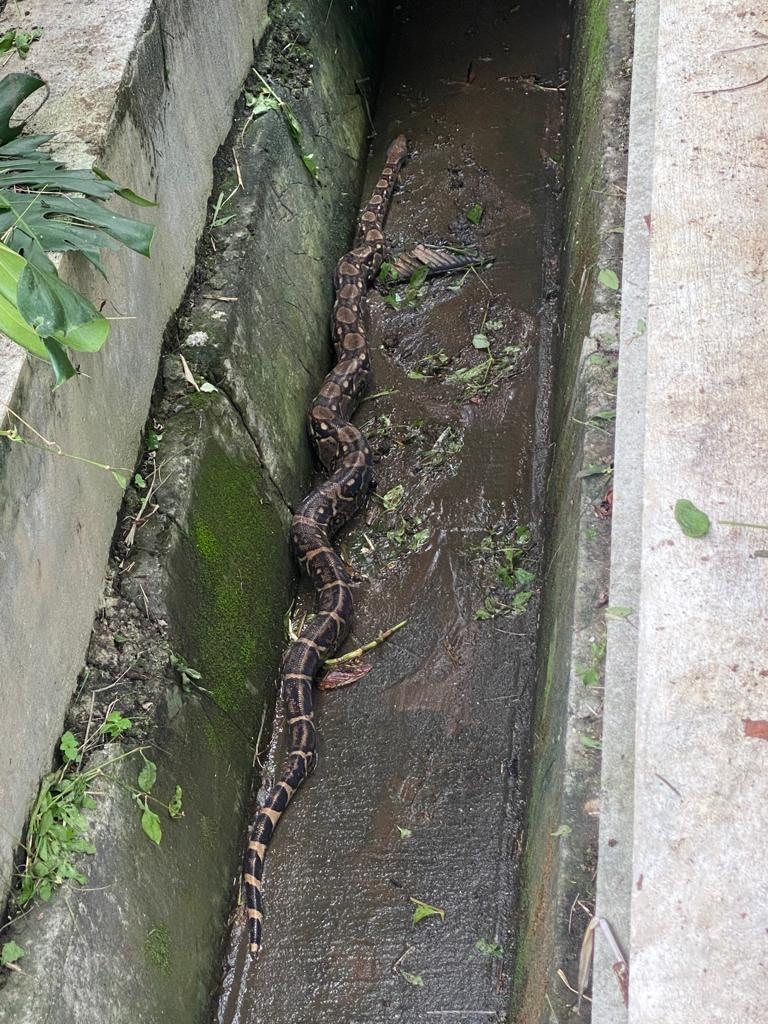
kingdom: Animalia
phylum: Chordata
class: Squamata
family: Boidae
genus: Boa
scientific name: Boa imperator
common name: Central american boa
